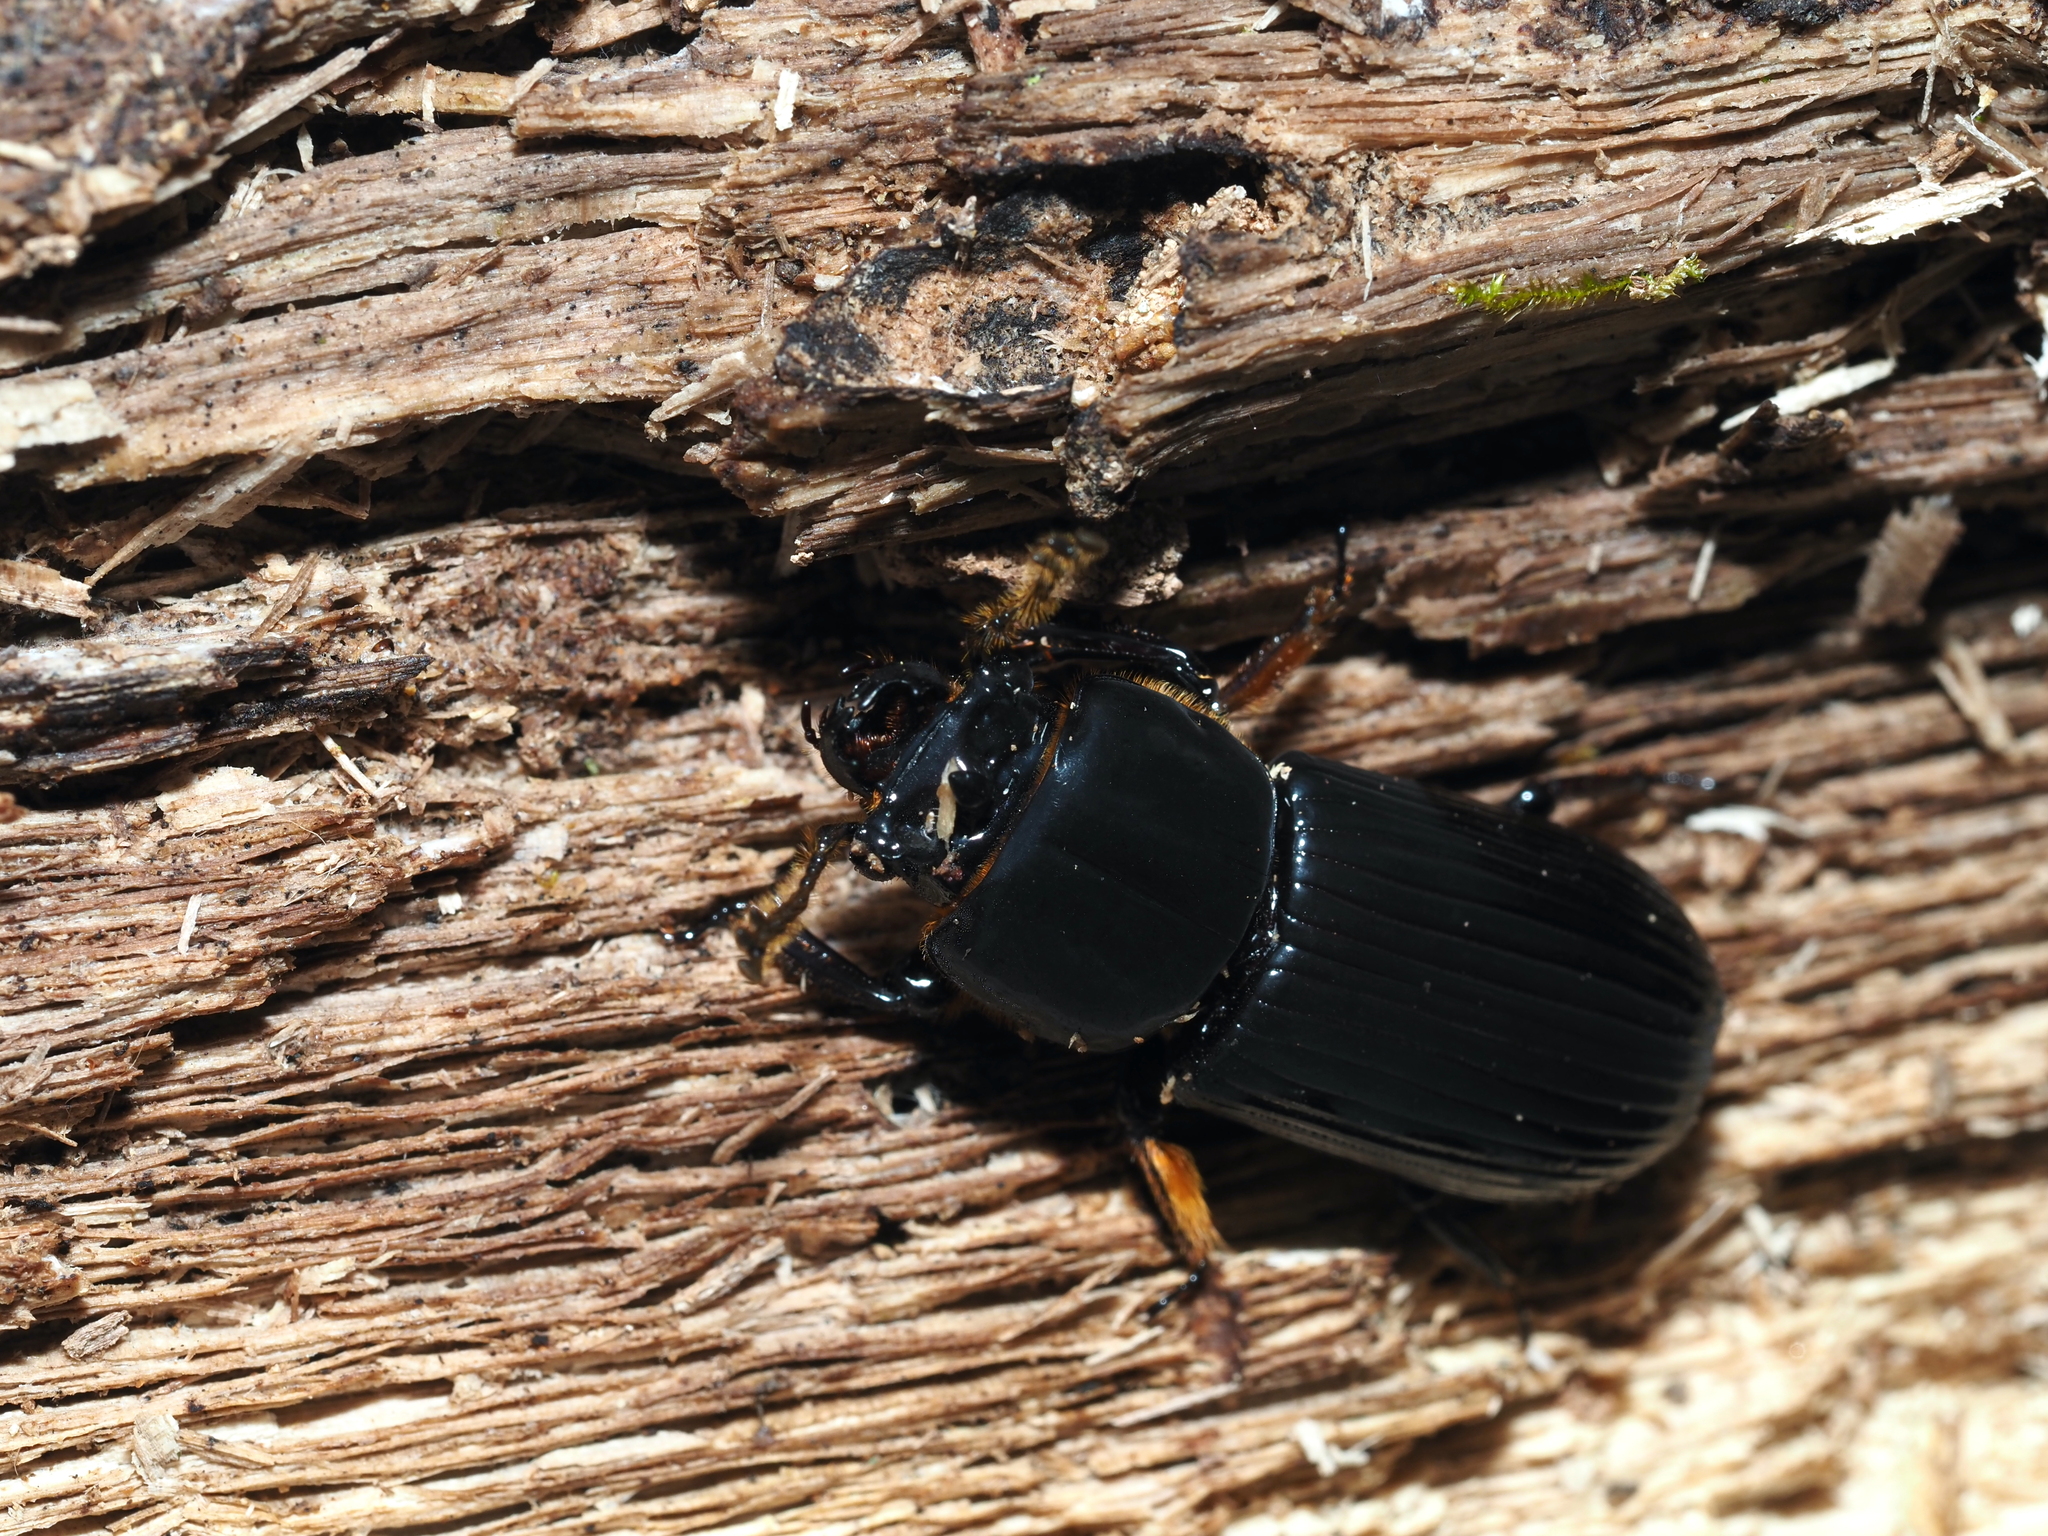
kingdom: Animalia
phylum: Arthropoda
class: Insecta
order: Coleoptera
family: Passalidae
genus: Odontotaenius
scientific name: Odontotaenius disjunctus
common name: Patent leather beetle
